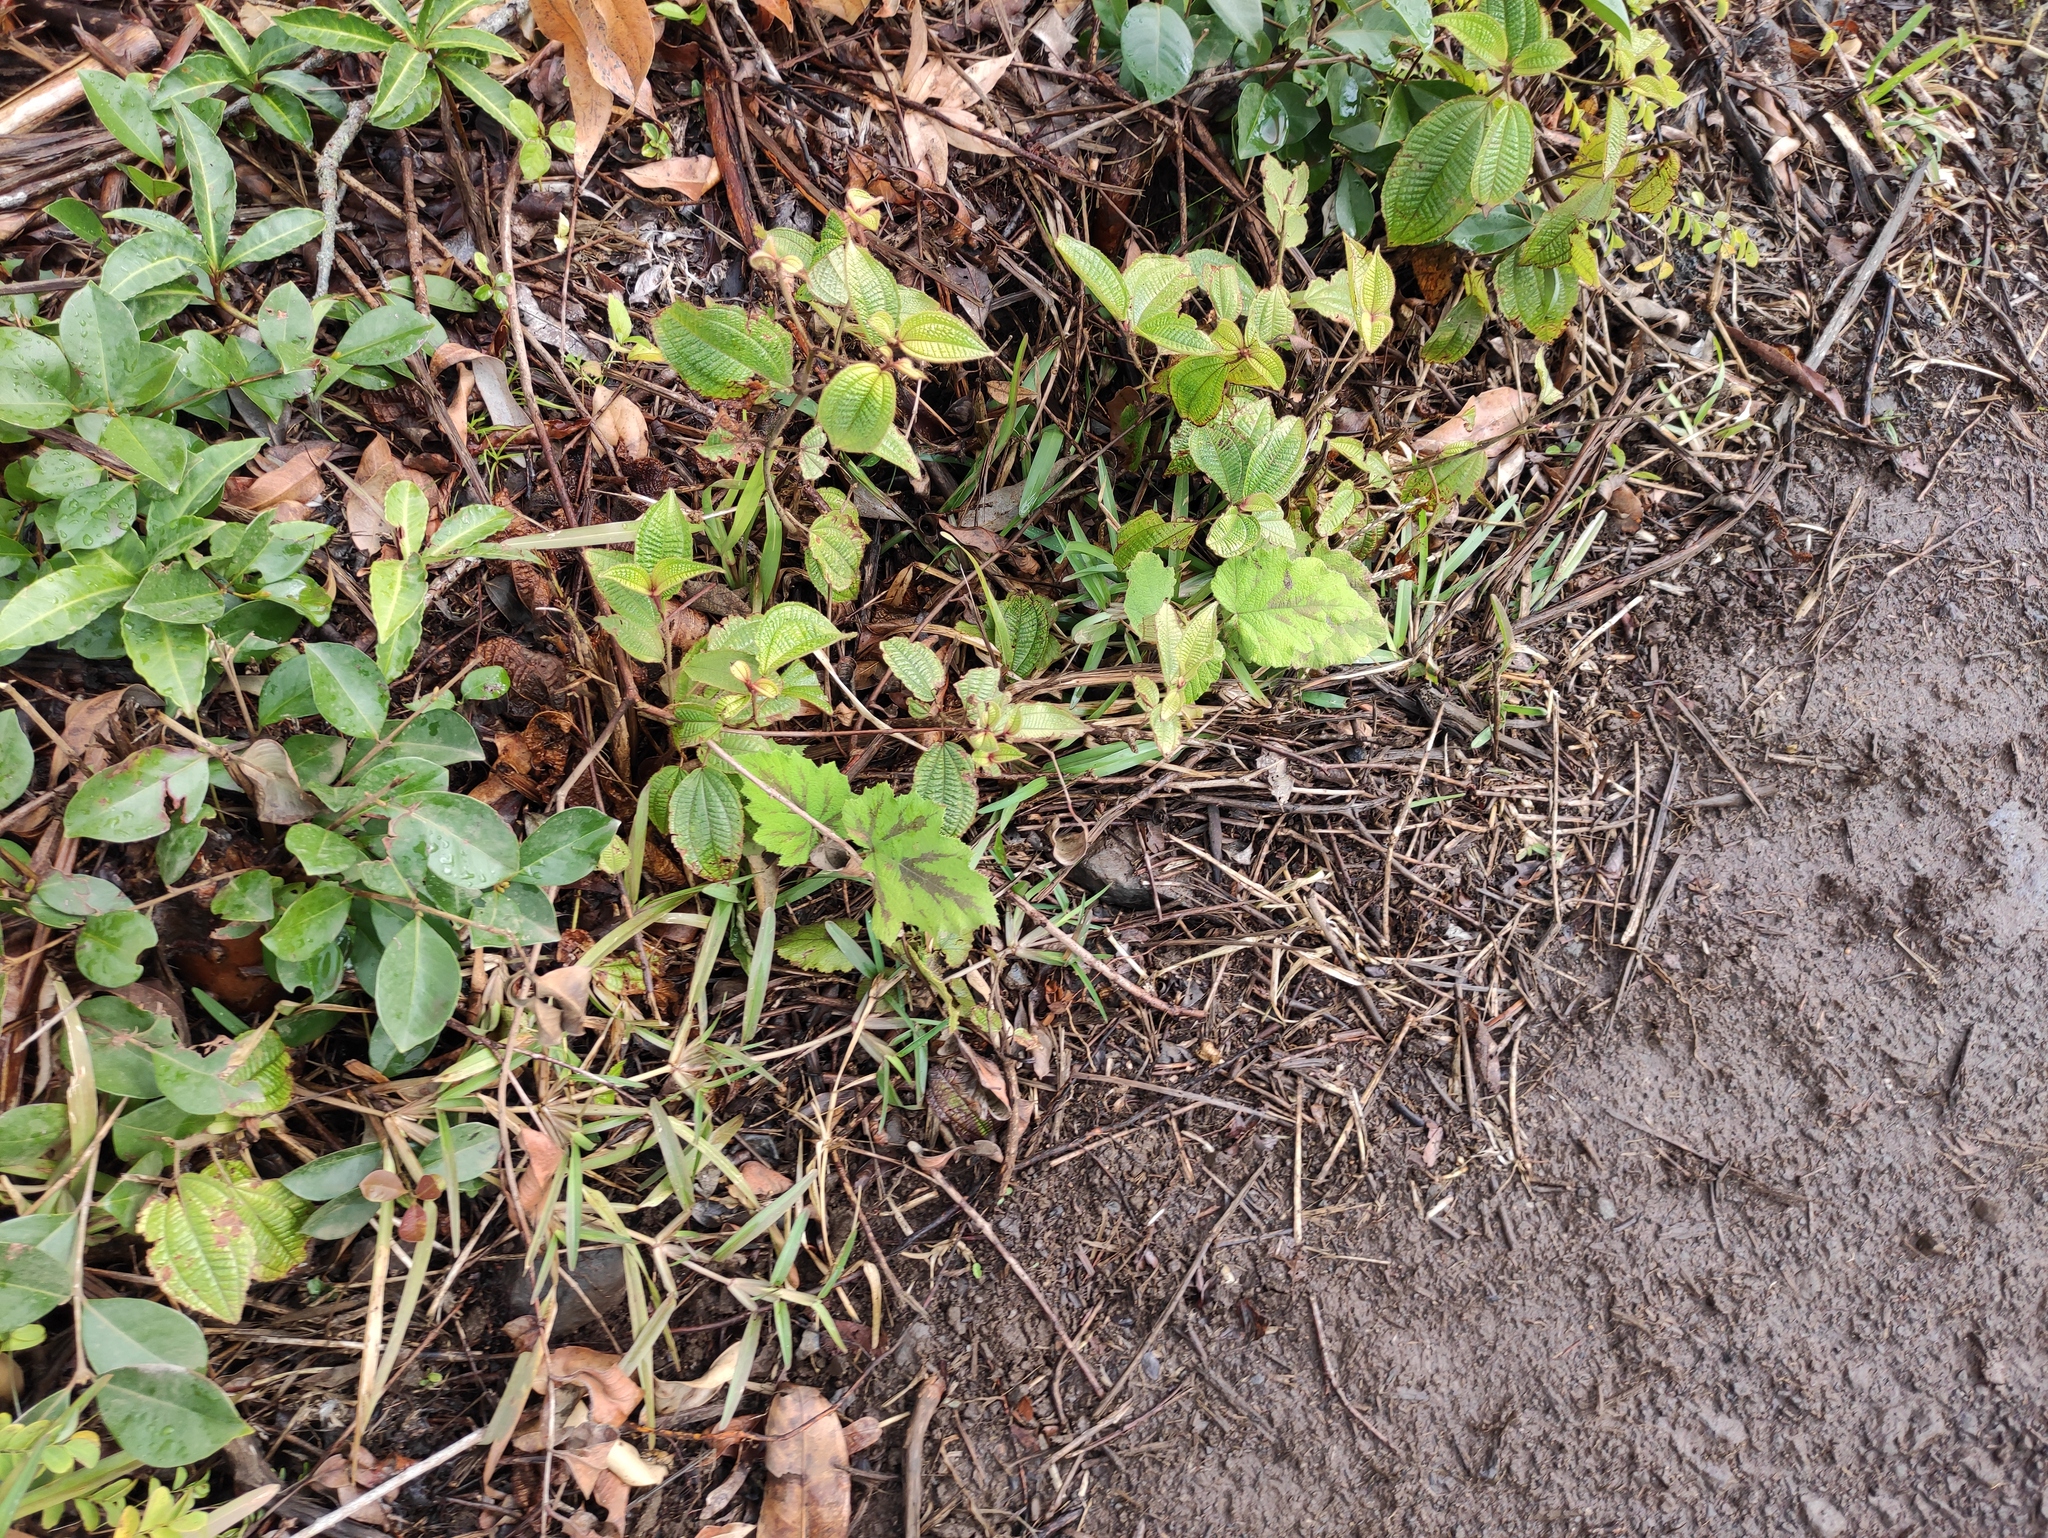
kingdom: Plantae
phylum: Tracheophyta
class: Magnoliopsida
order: Rosales
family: Rosaceae
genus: Rubus
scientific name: Rubus alceifolius
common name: Giant bramble
